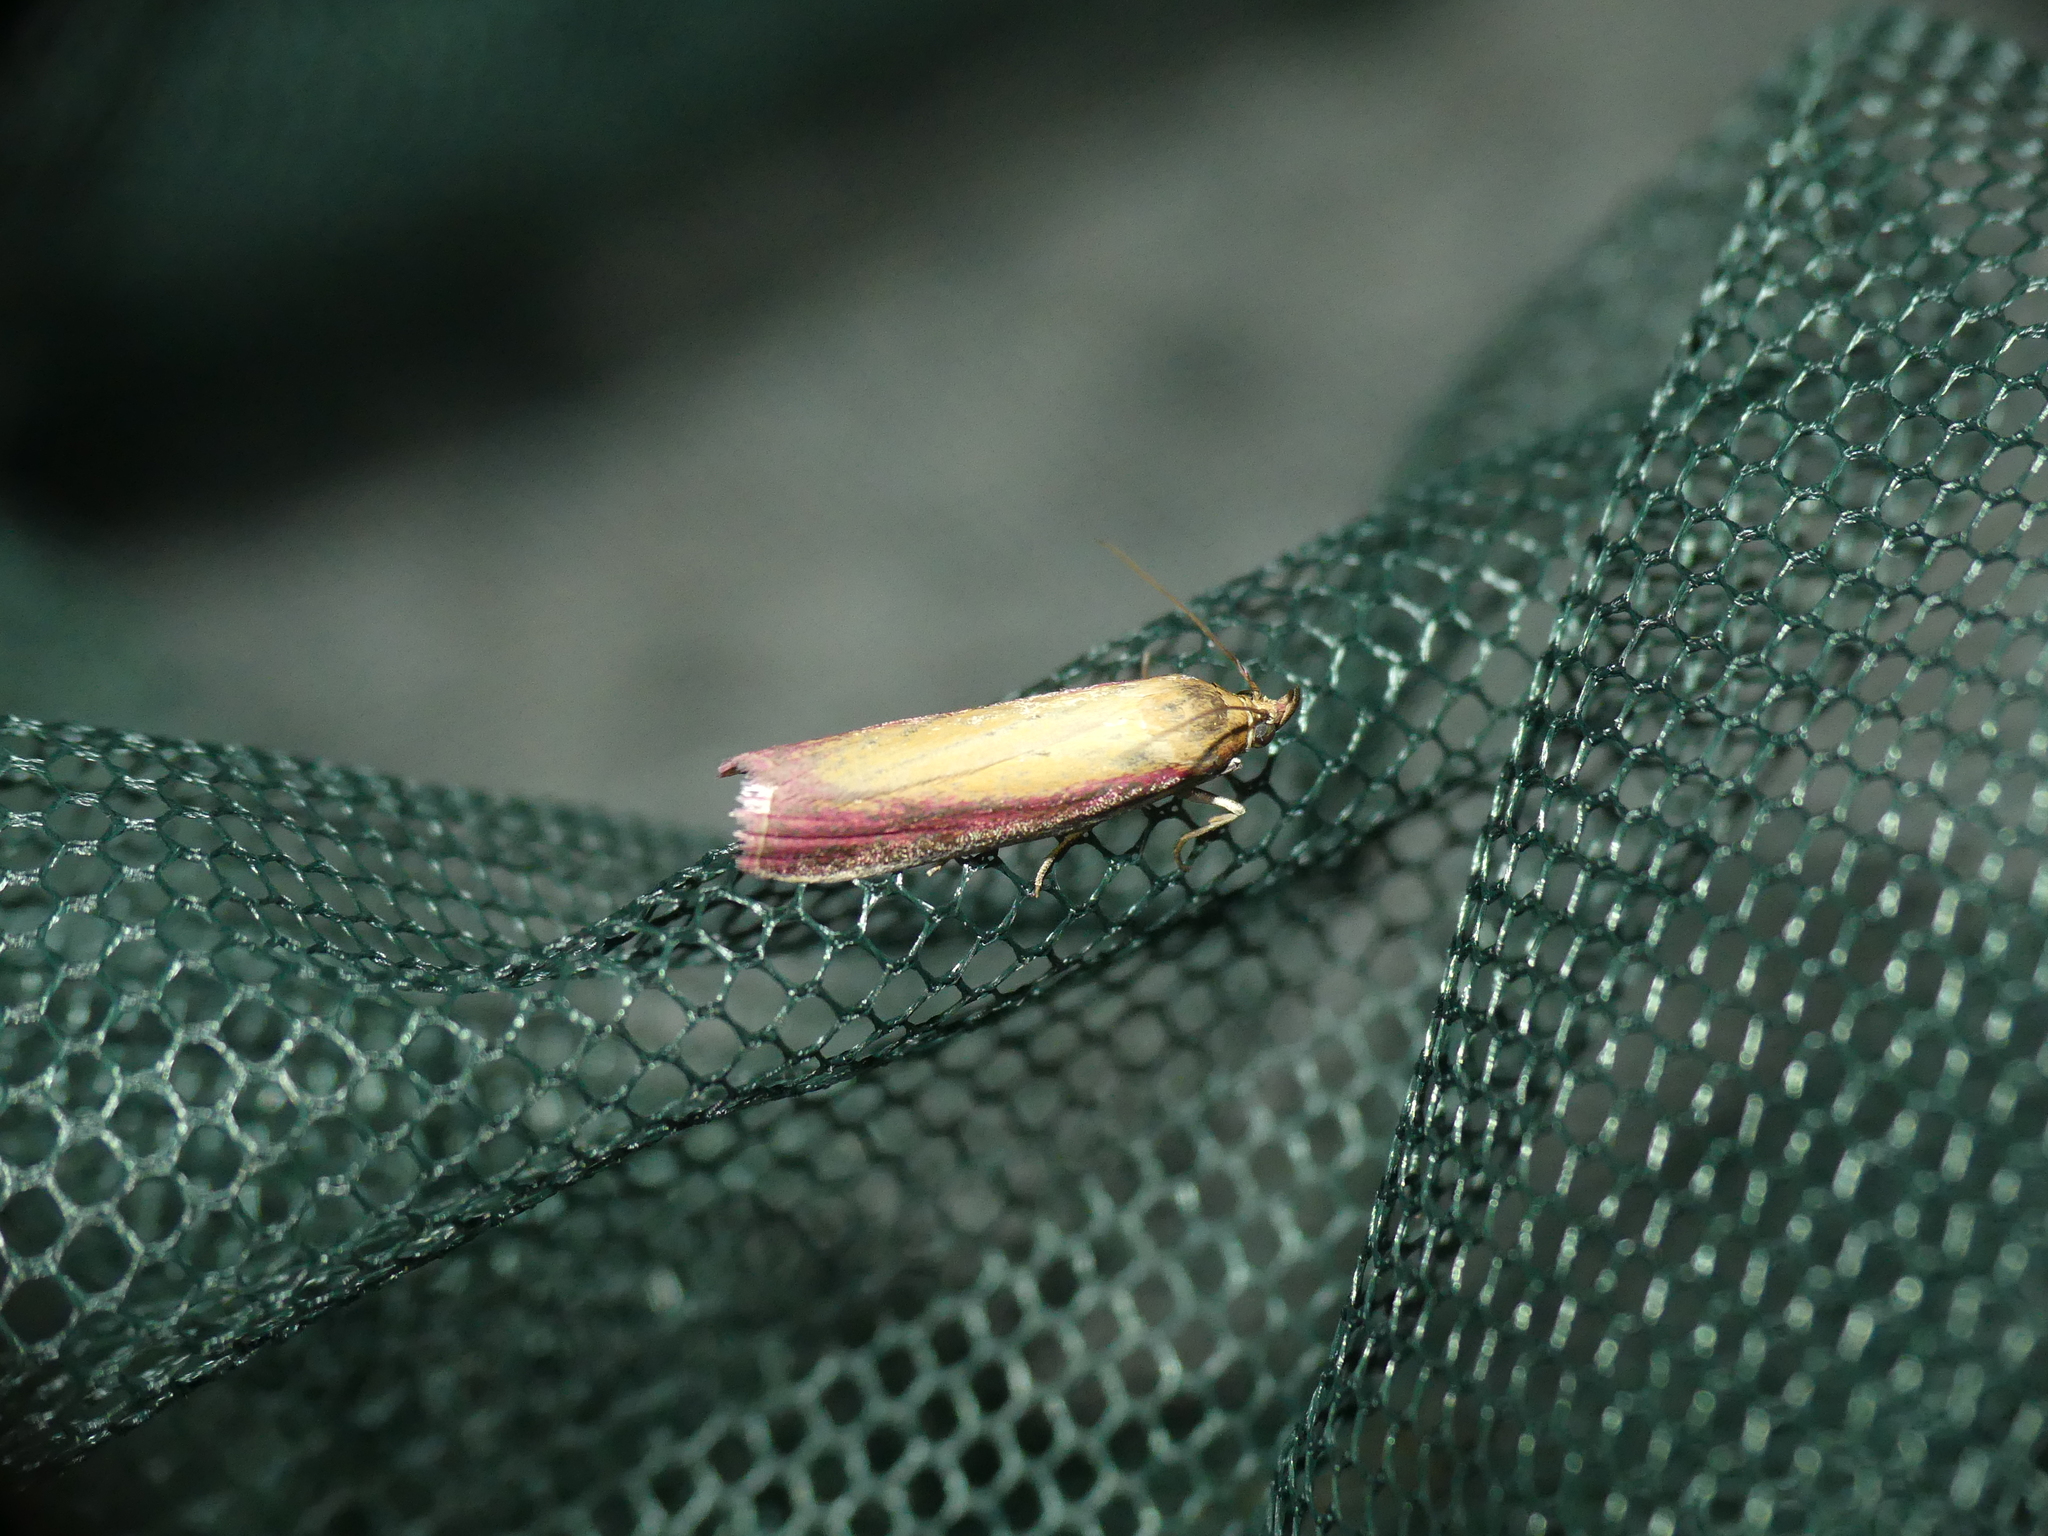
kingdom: Animalia
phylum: Arthropoda
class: Insecta
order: Lepidoptera
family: Pyralidae
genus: Oncocera
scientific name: Oncocera semirubella
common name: Rosy-striped knot-horn
